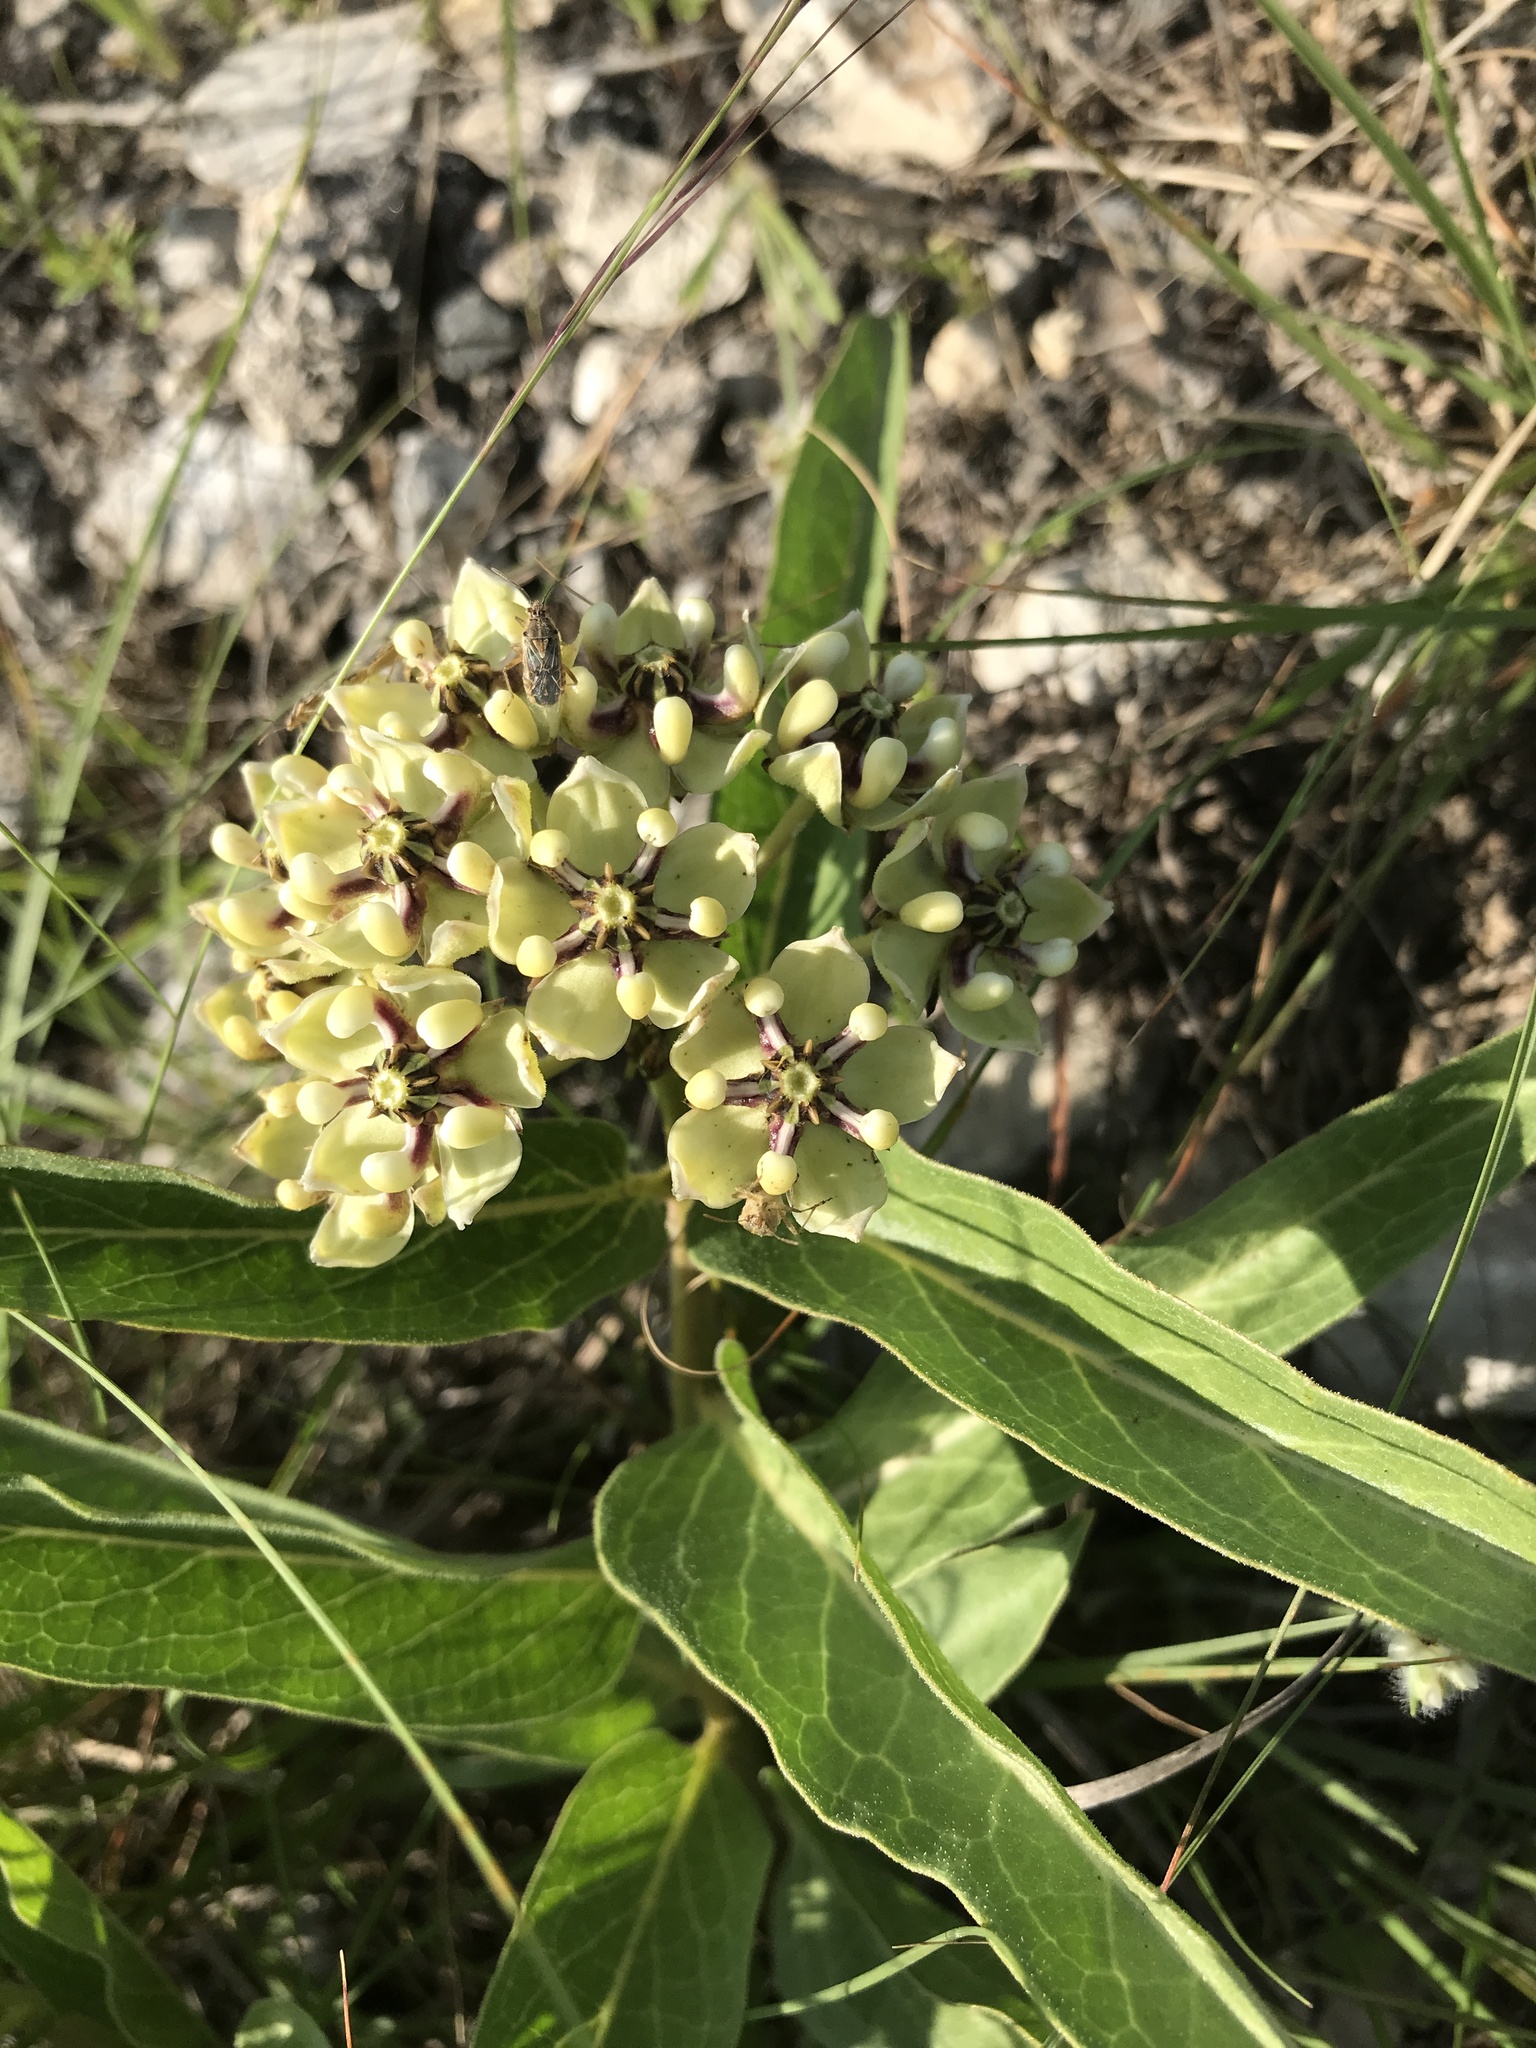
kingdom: Plantae
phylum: Tracheophyta
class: Magnoliopsida
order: Gentianales
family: Apocynaceae
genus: Asclepias
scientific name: Asclepias asperula
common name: Antelope horns
